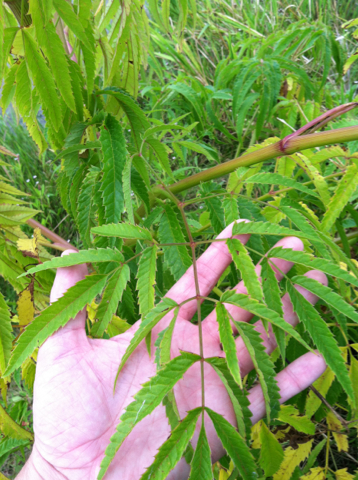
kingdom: Plantae
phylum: Tracheophyta
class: Magnoliopsida
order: Apiales
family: Apiaceae
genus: Cicuta
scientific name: Cicuta maculata
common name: Spotted cowbane
